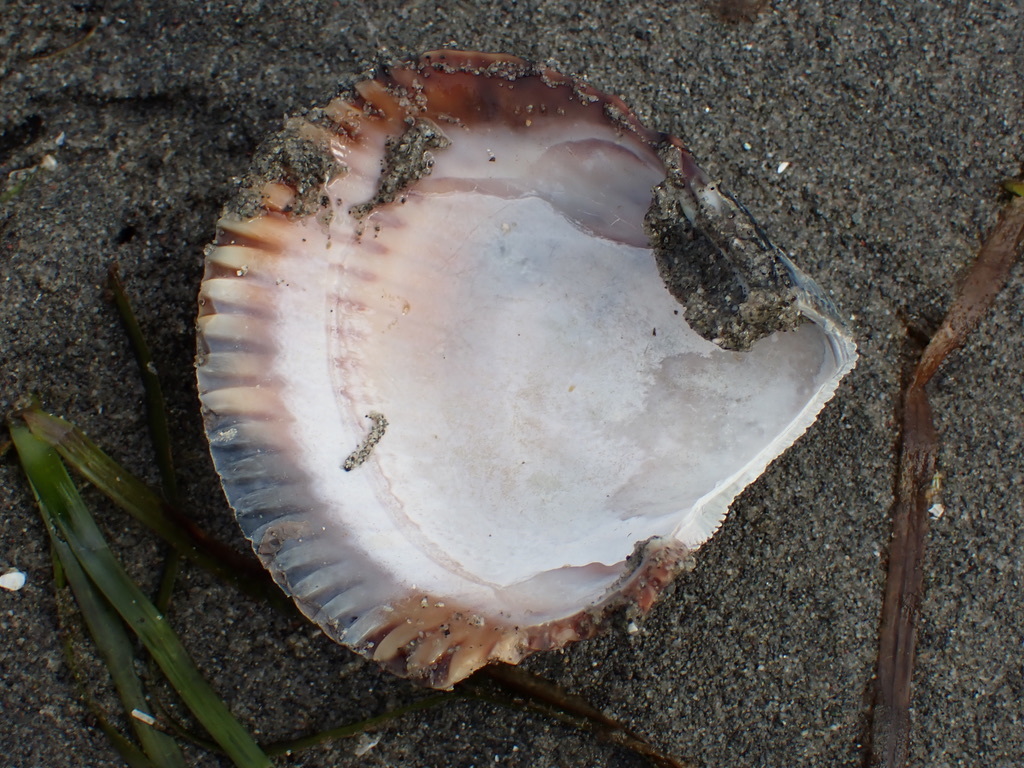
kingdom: Animalia
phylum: Mollusca
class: Bivalvia
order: Cardiida
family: Cardiidae
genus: Clinocardium
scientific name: Clinocardium nuttallii
